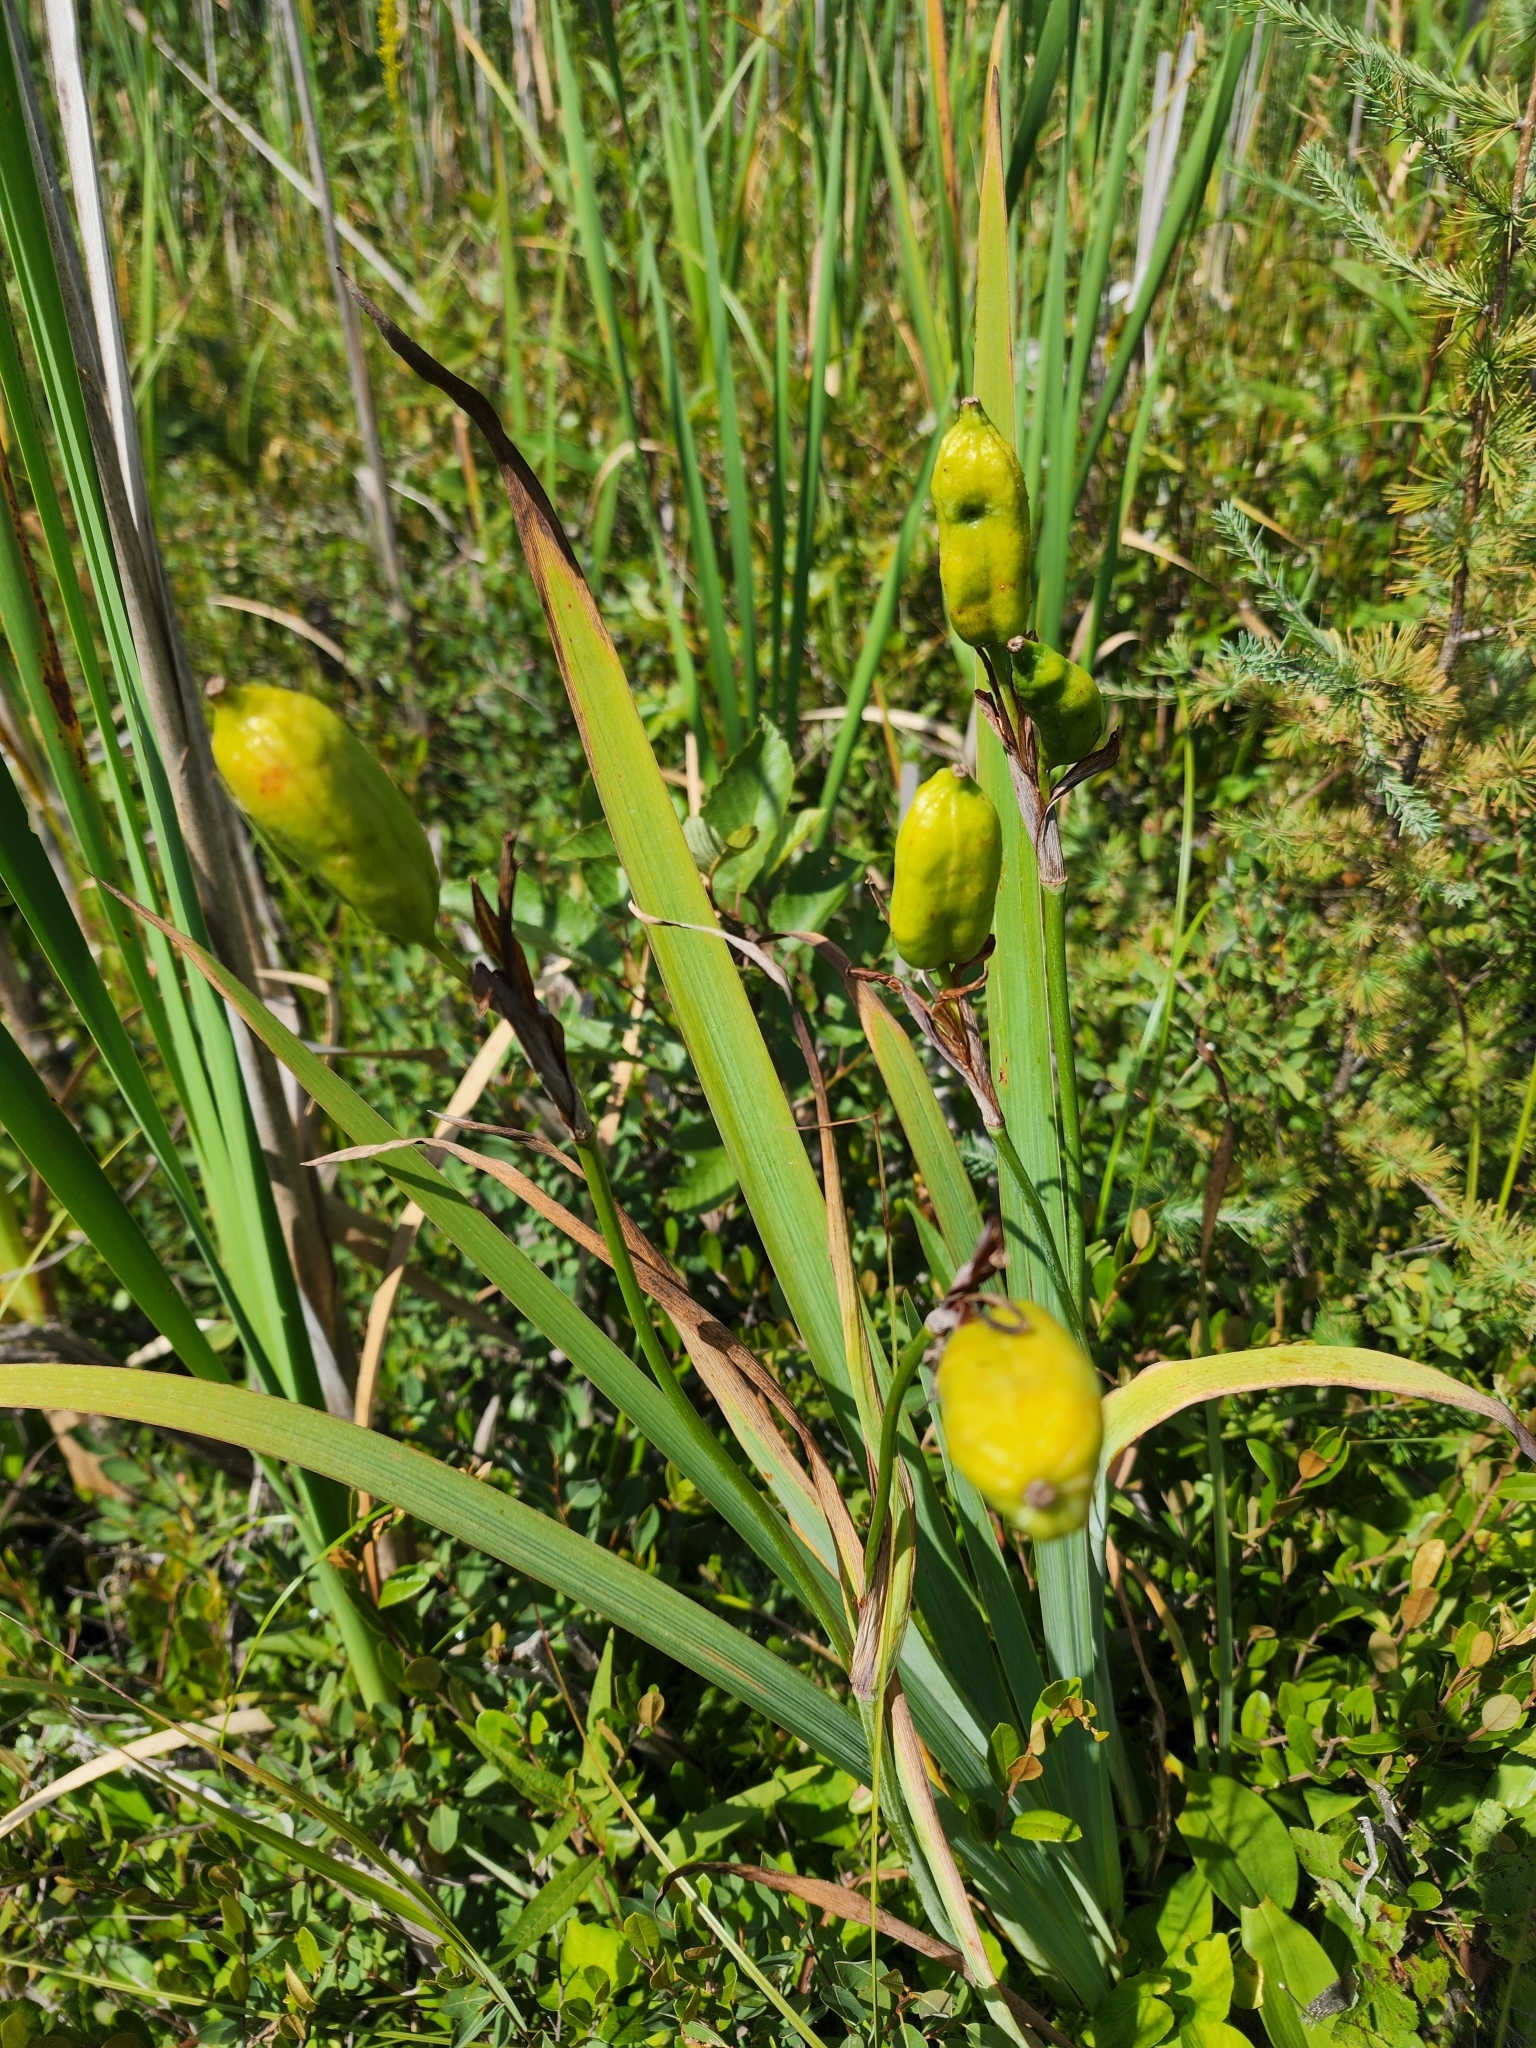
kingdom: Plantae
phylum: Tracheophyta
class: Liliopsida
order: Asparagales
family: Iridaceae
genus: Iris
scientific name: Iris versicolor
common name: Purple iris
